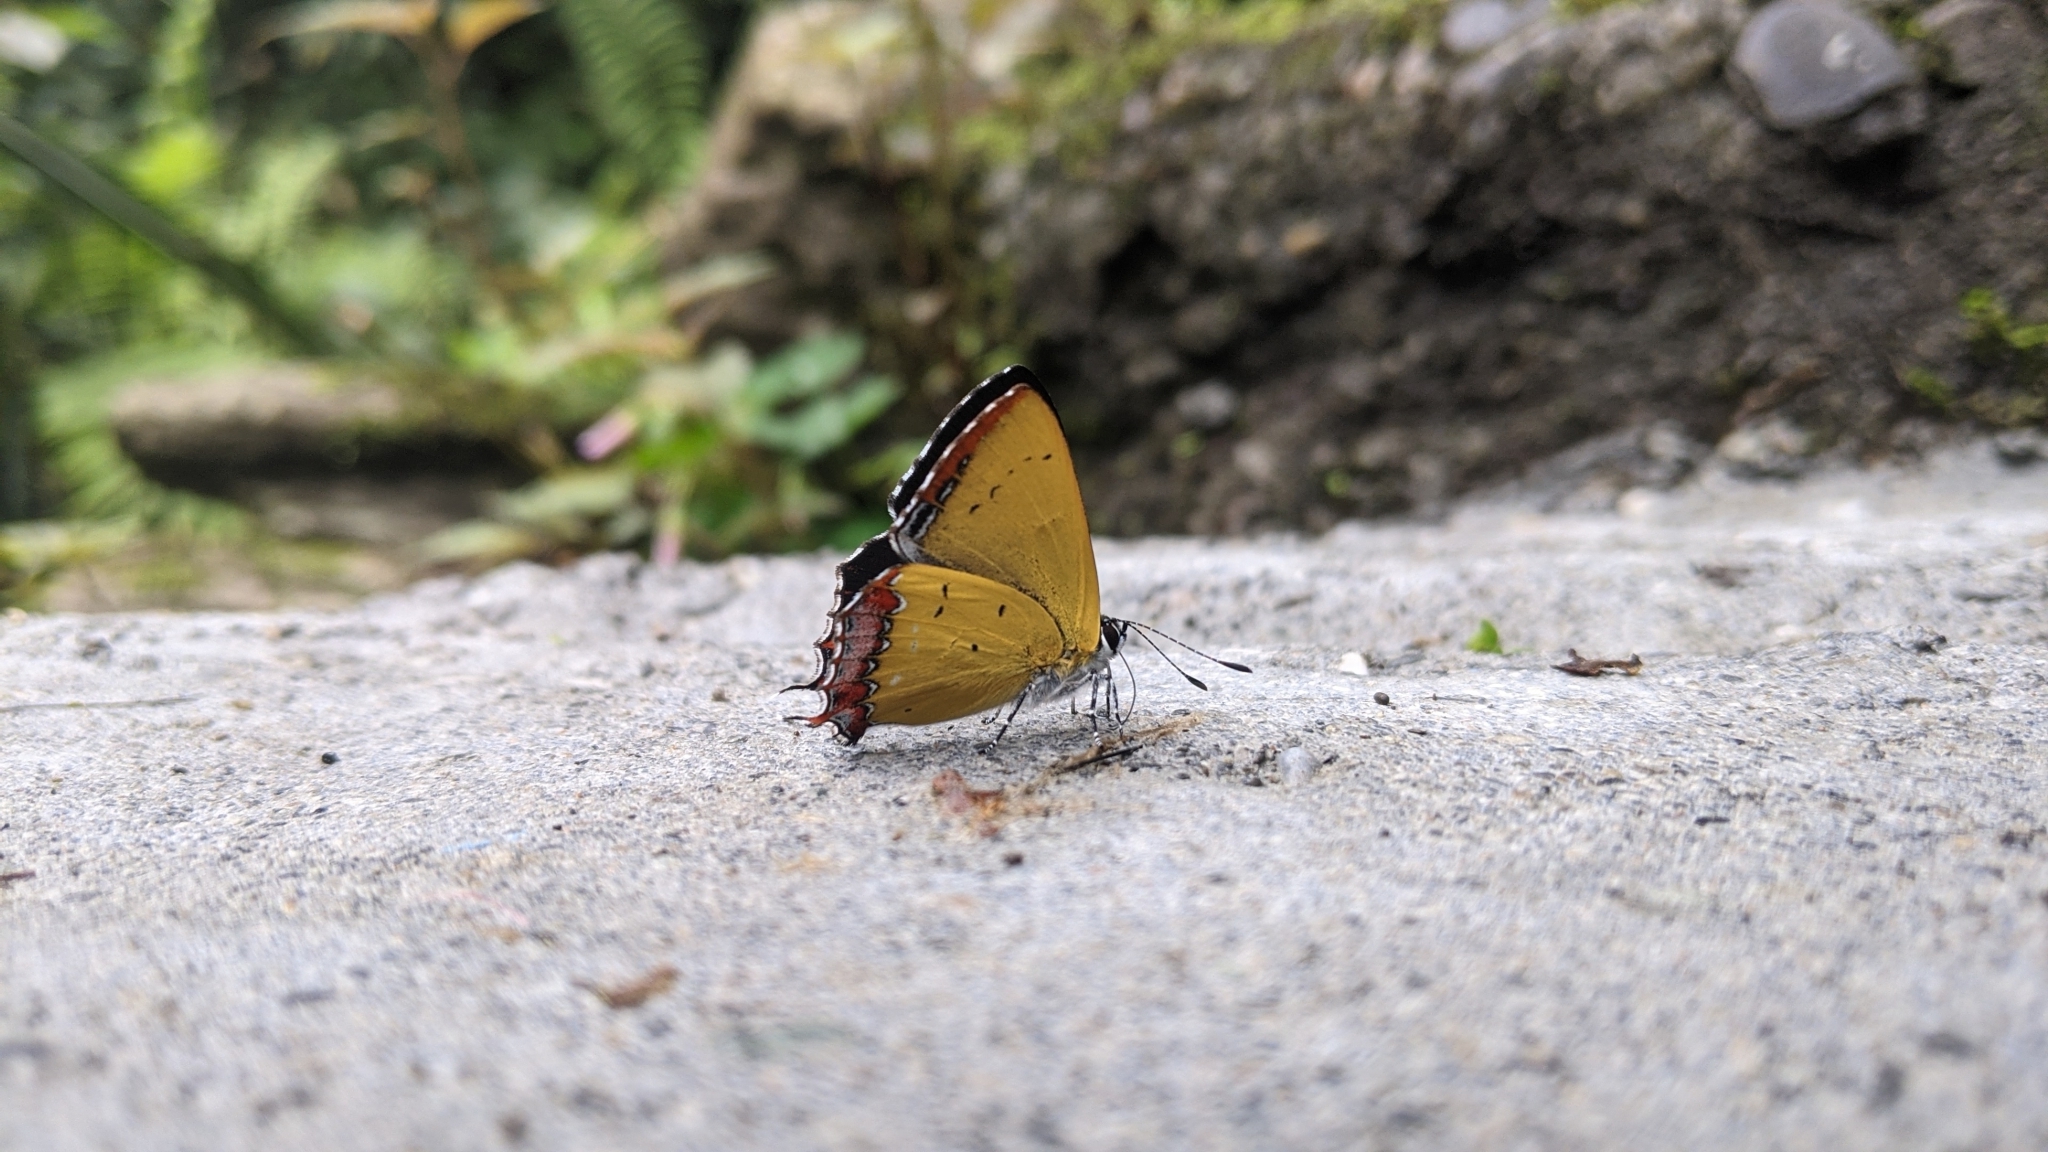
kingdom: Animalia
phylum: Arthropoda
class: Insecta
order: Lepidoptera
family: Lycaenidae
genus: Heliophorus
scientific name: Heliophorus ila
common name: Restricted purple sapphire
